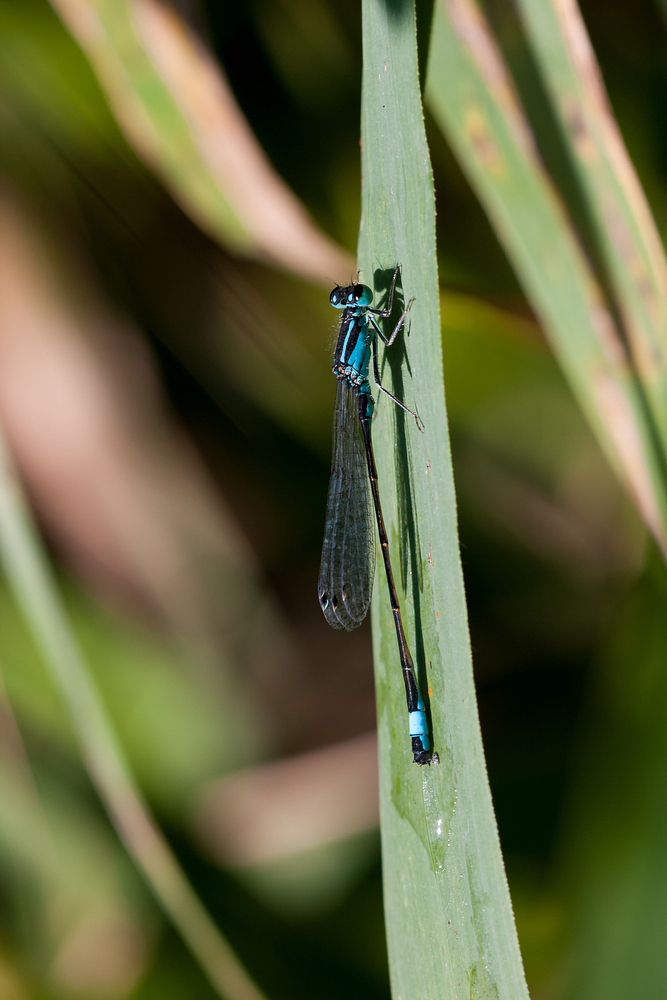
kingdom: Animalia
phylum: Arthropoda
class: Insecta
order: Odonata
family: Coenagrionidae
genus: Ischnura
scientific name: Ischnura elegans
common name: Blue-tailed damselfly
